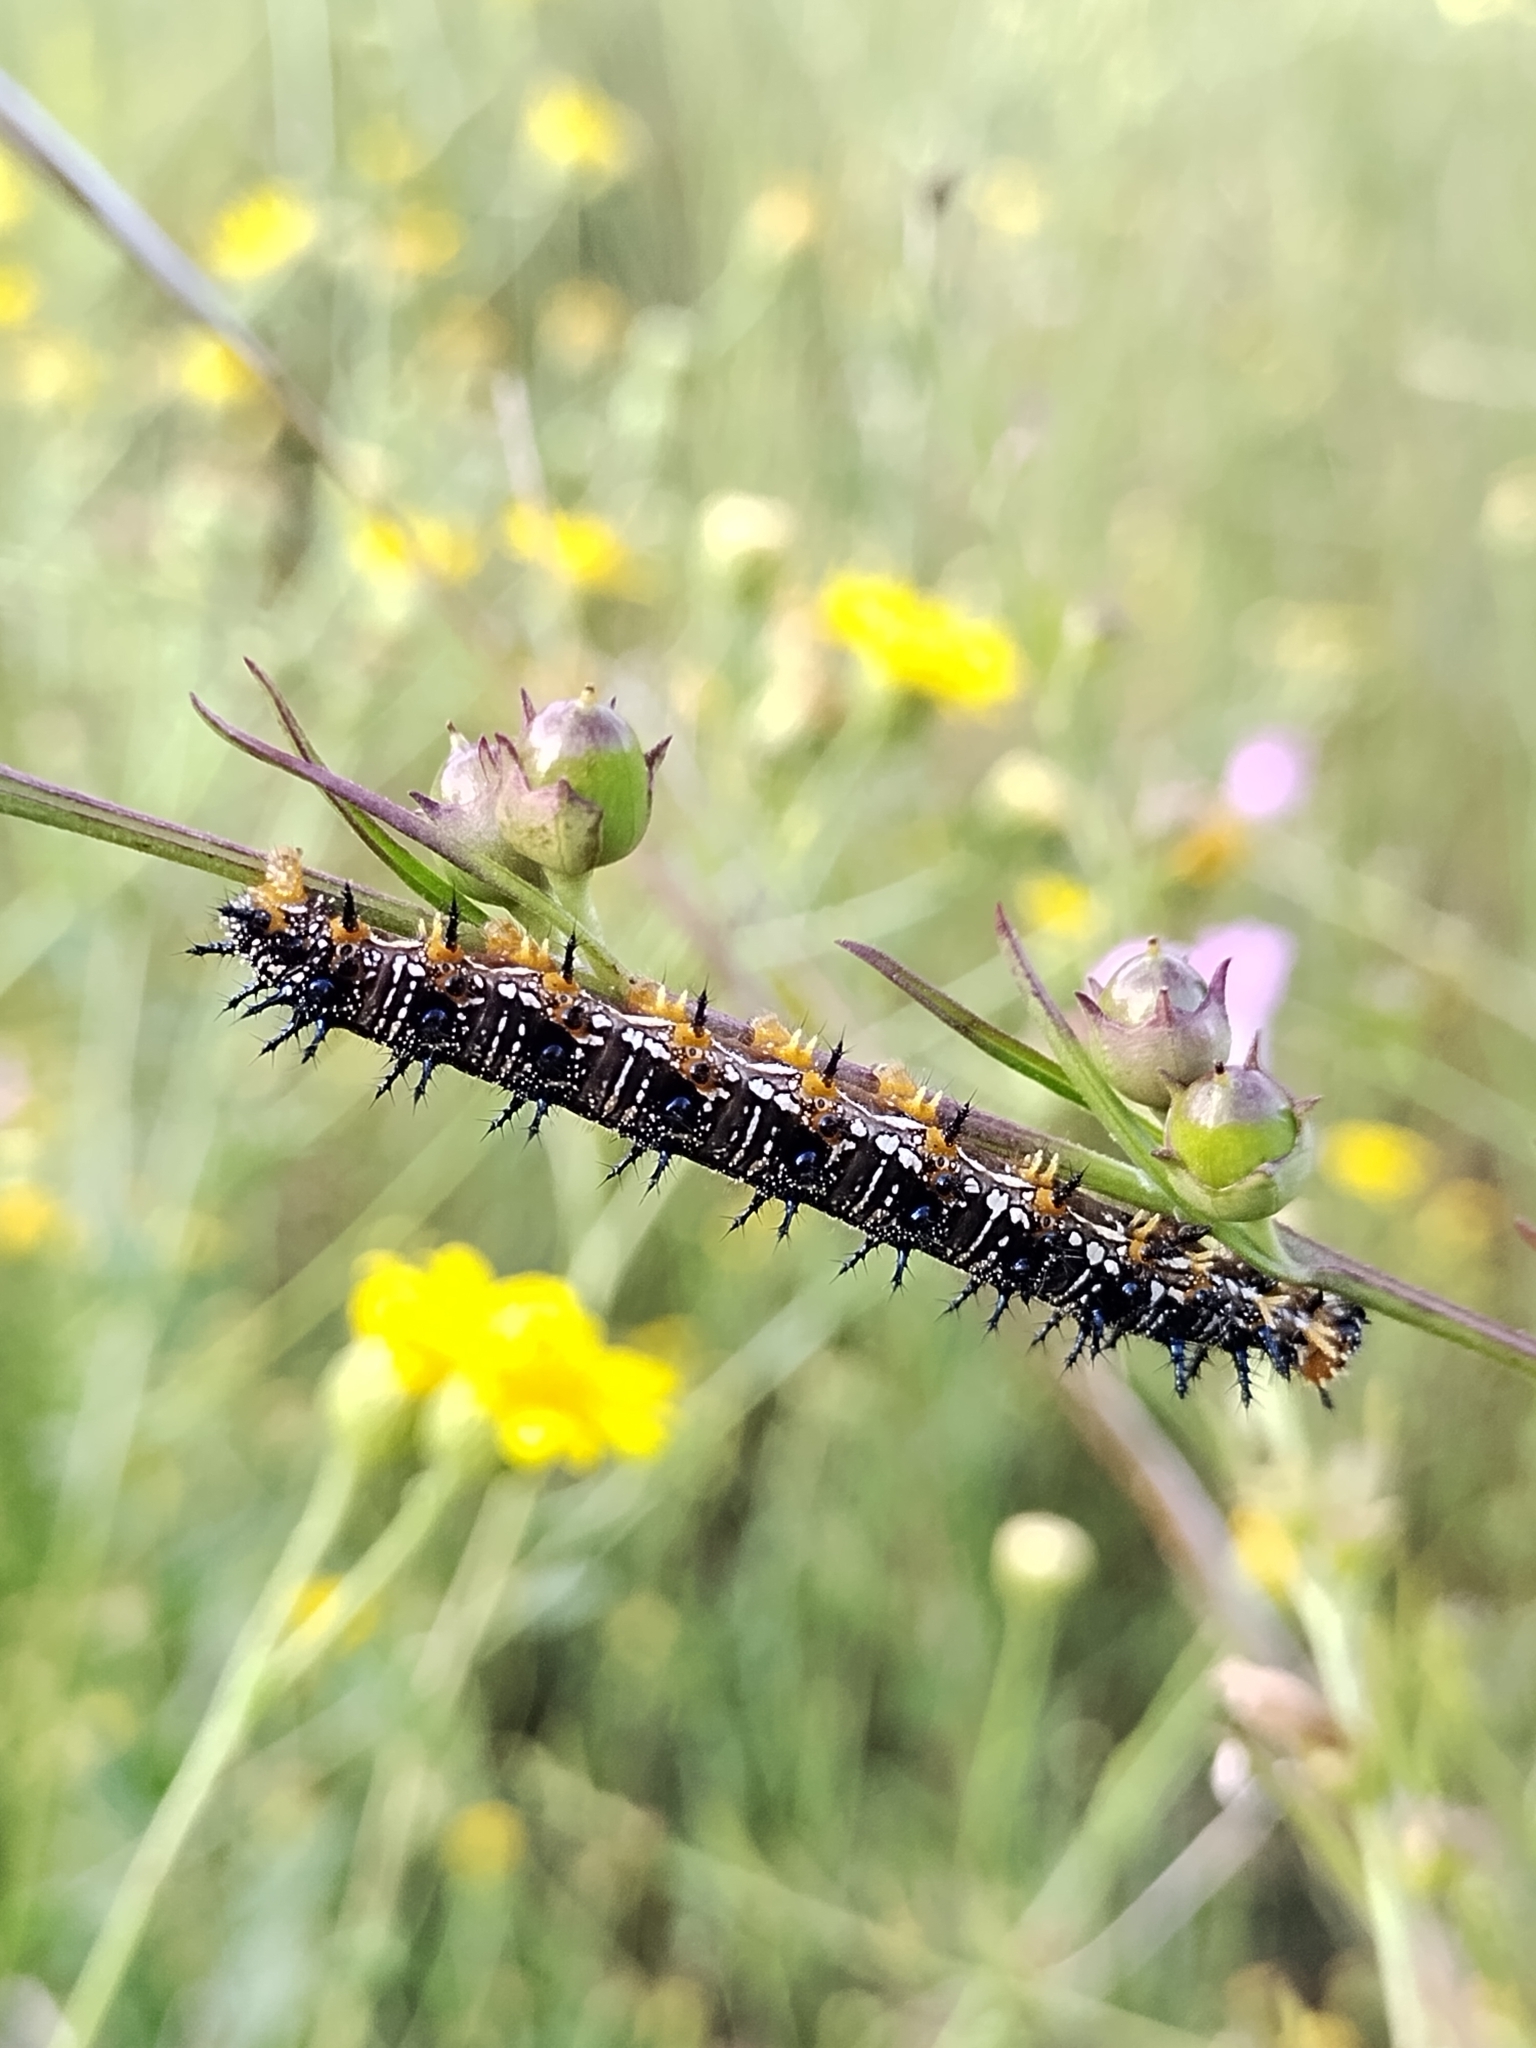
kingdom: Animalia
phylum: Arthropoda
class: Insecta
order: Lepidoptera
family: Nymphalidae
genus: Junonia
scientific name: Junonia coenia
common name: Common buckeye
